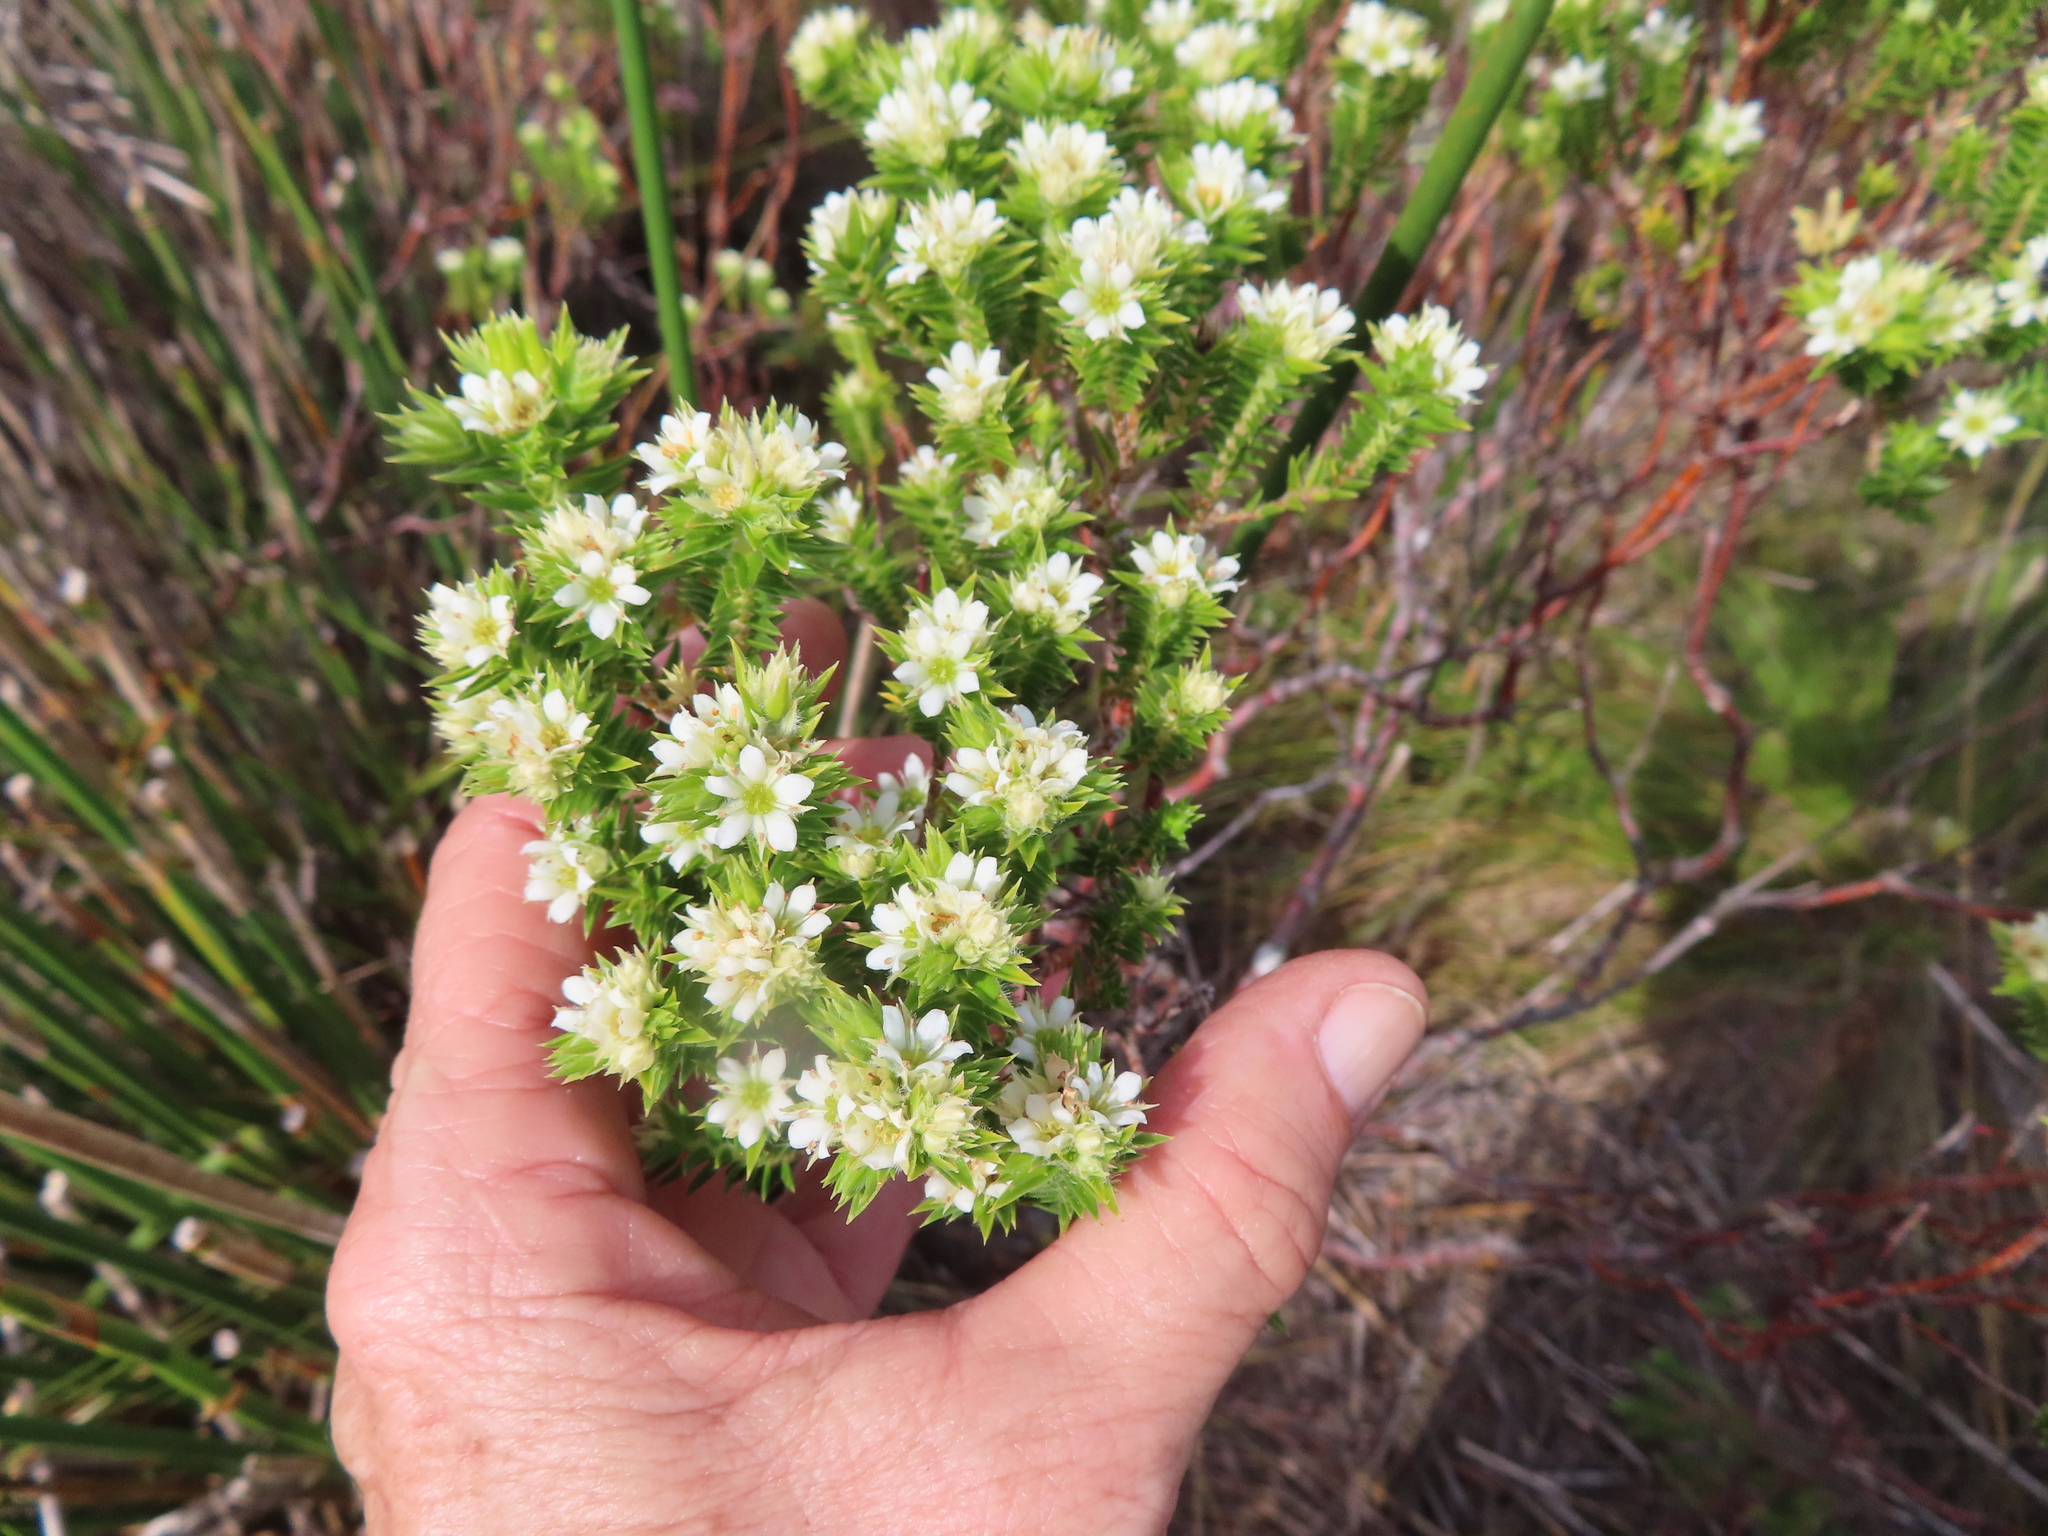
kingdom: Plantae
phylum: Tracheophyta
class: Magnoliopsida
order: Sapindales
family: Rutaceae
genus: Diosma
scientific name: Diosma arenicola
